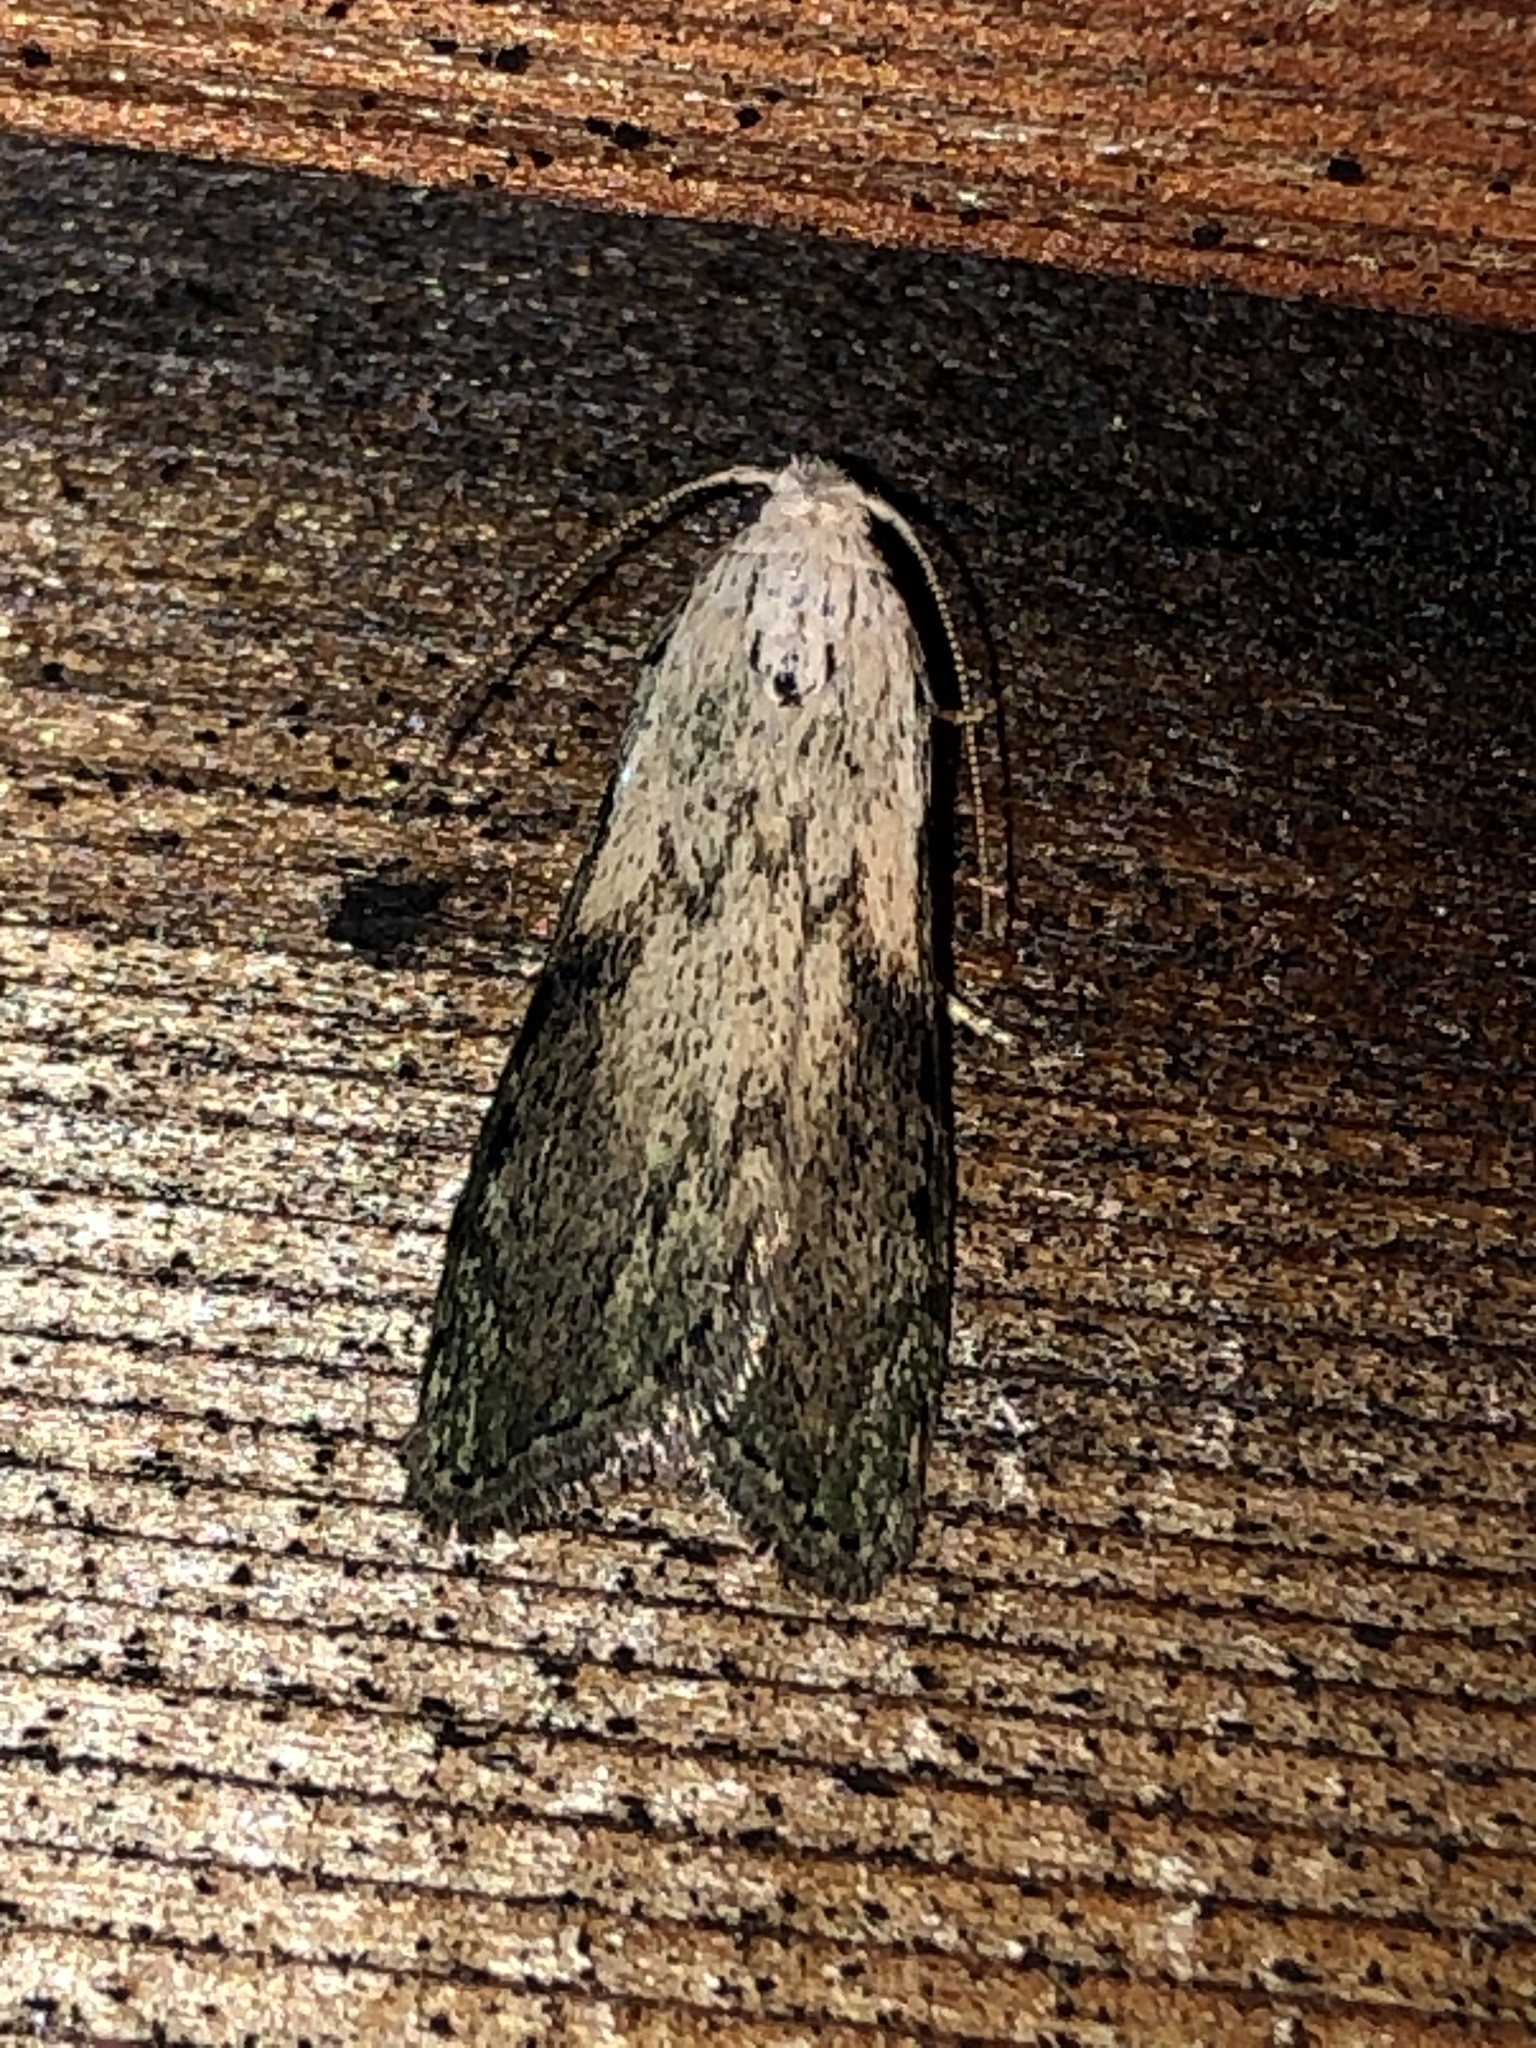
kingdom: Animalia
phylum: Arthropoda
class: Insecta
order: Lepidoptera
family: Pyralidae
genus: Aphomia
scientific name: Aphomia sociella
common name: Bee moth
